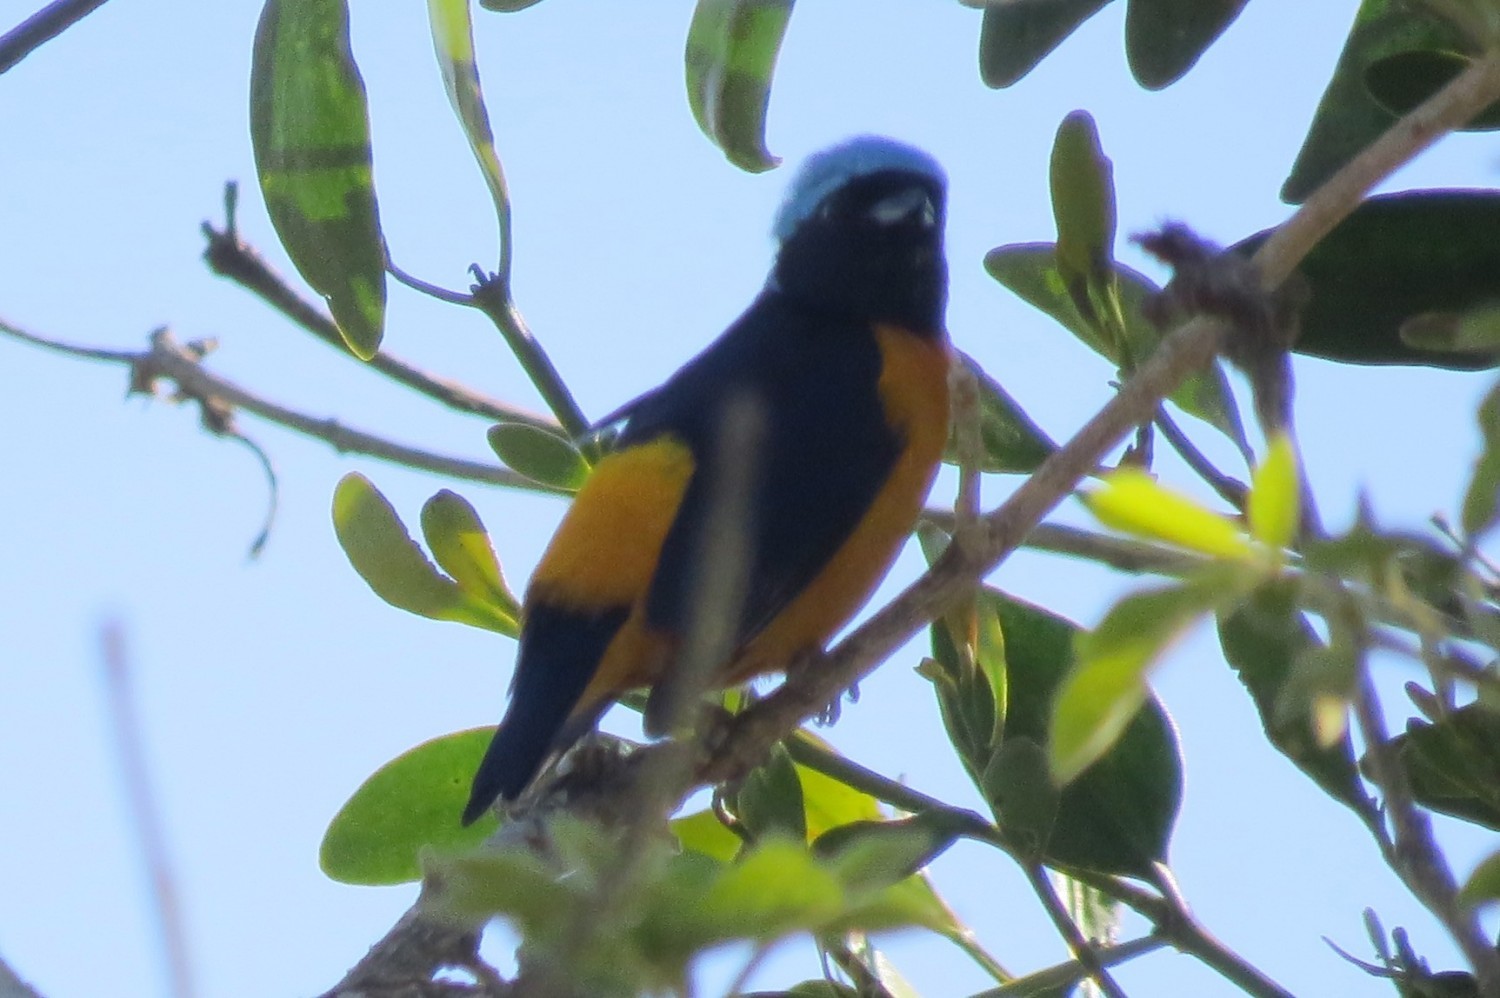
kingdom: Animalia
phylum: Chordata
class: Aves
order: Passeriformes
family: Fringillidae
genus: Euphonia
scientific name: Euphonia cyanocephala
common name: Golden-rumped euphonia
